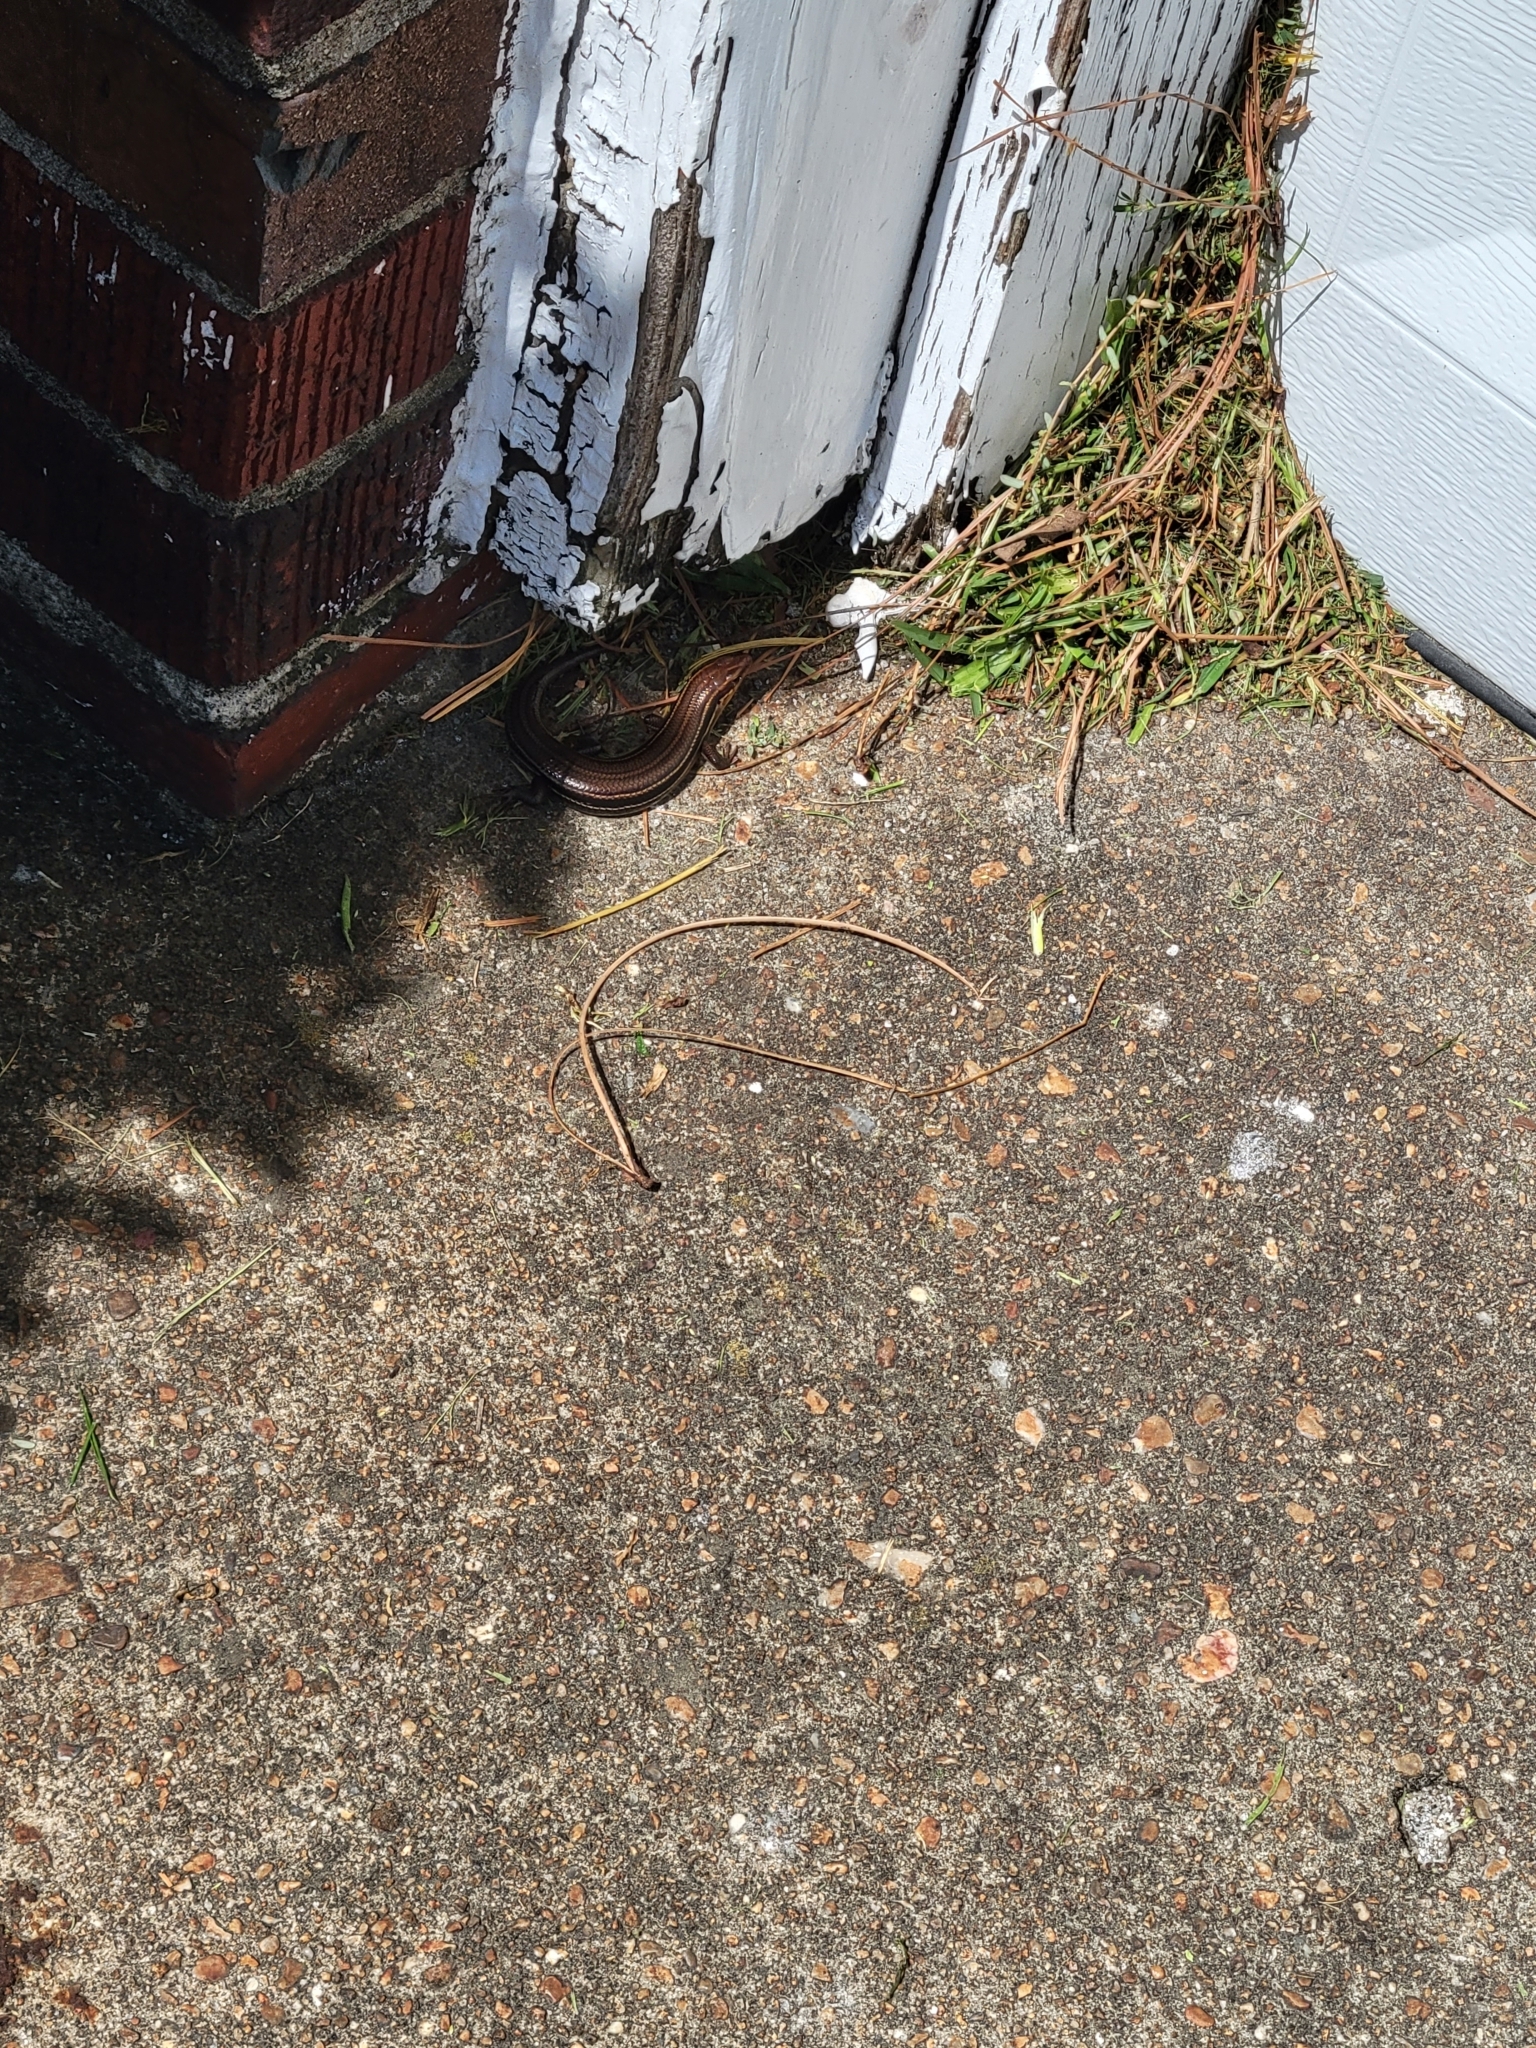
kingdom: Animalia
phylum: Chordata
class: Squamata
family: Scincidae
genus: Plestiodon
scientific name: Plestiodon inexpectatus
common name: Southeastern five-lined skink
